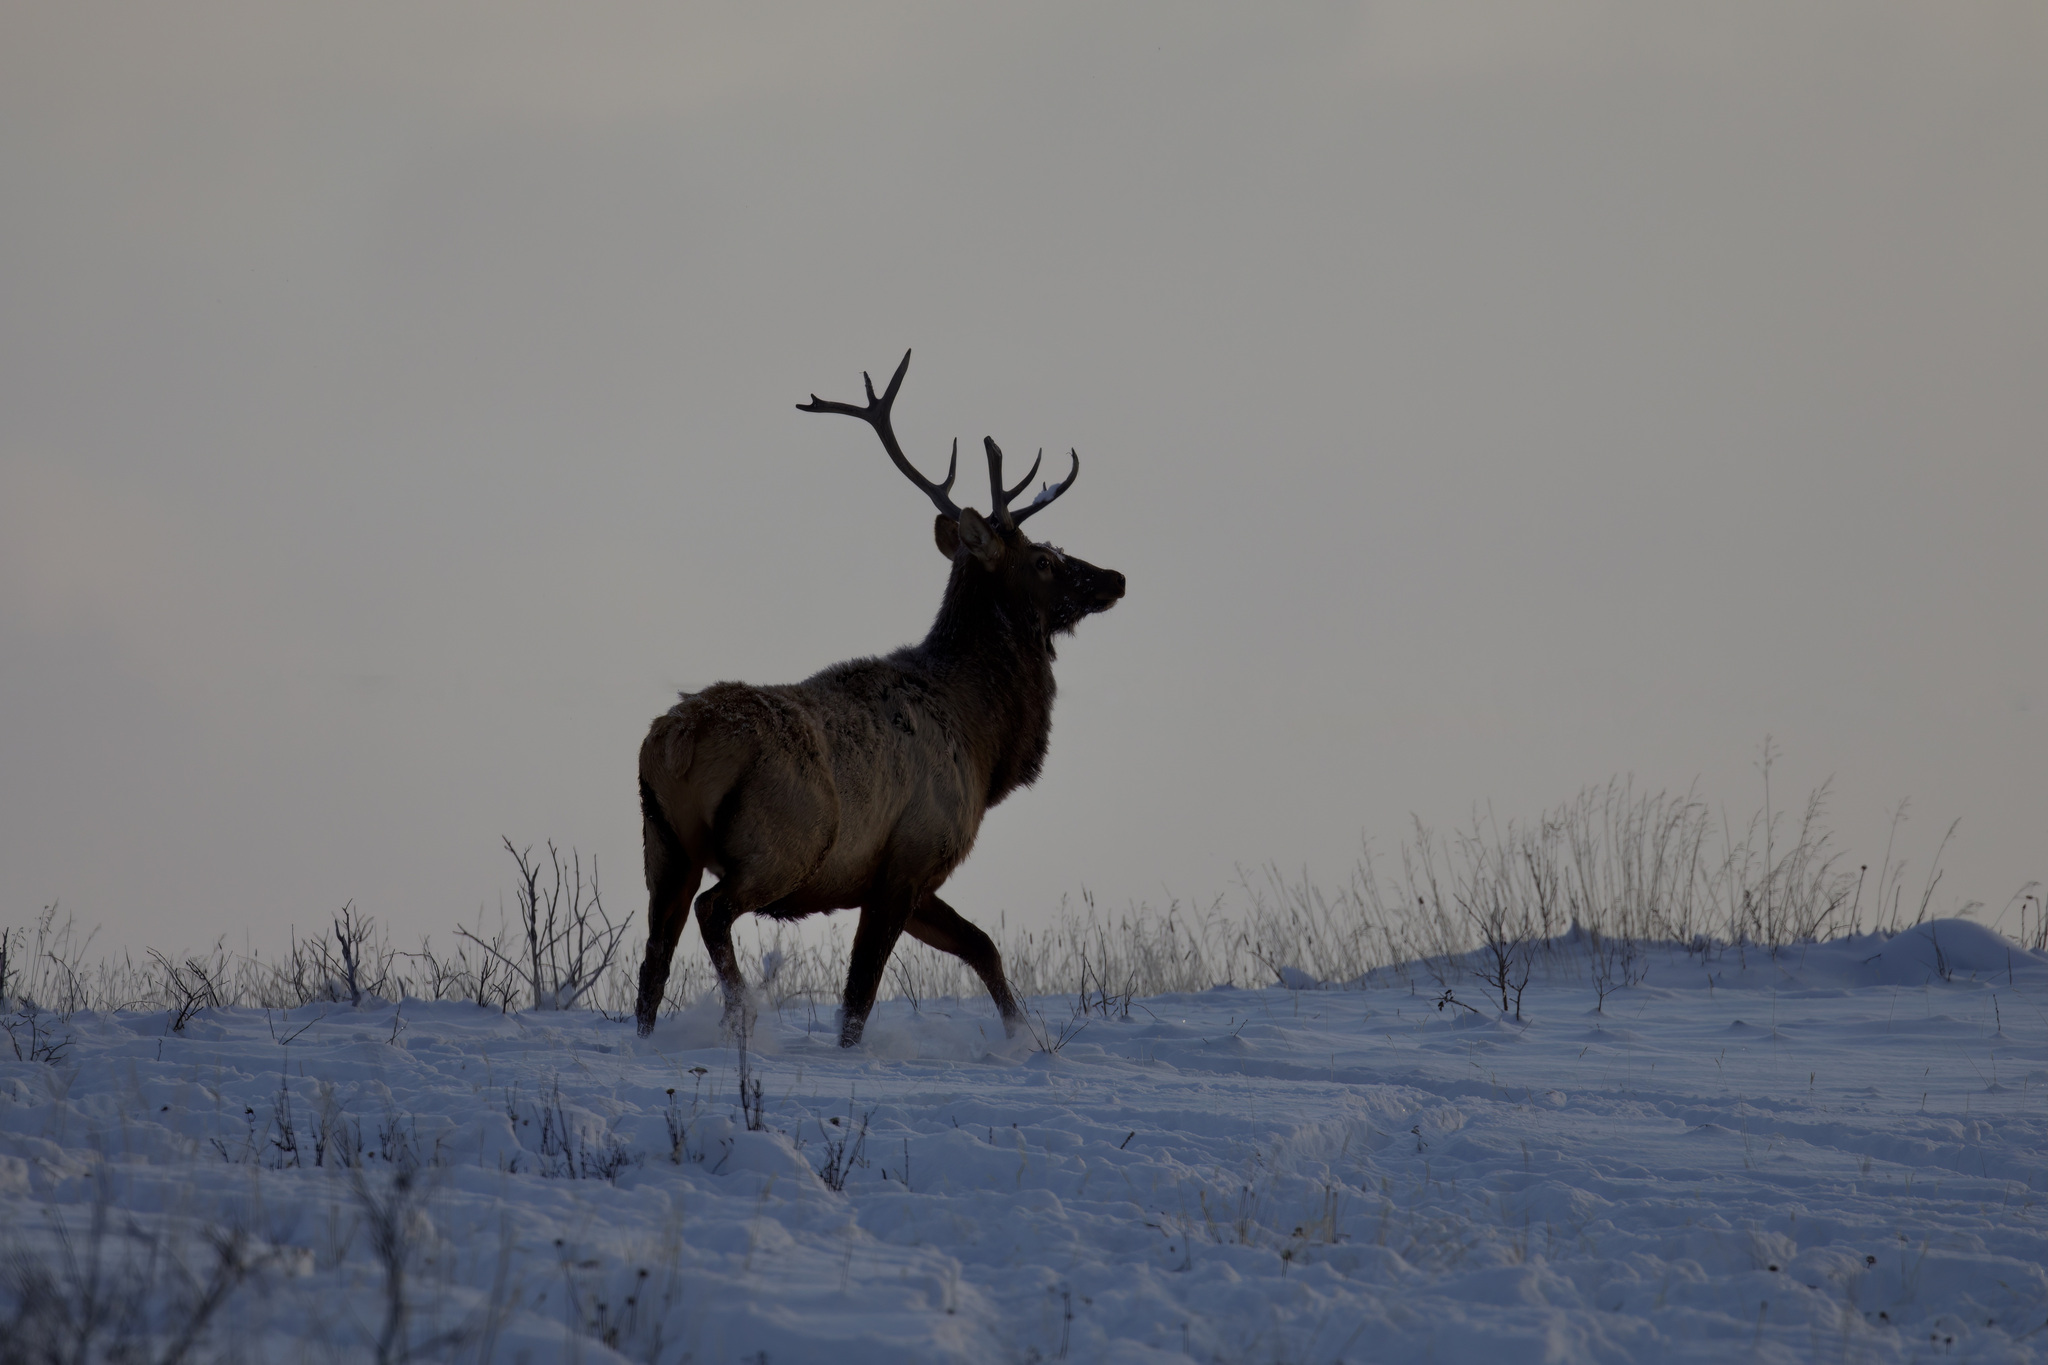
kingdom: Animalia
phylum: Chordata
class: Mammalia
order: Artiodactyla
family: Cervidae
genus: Cervus
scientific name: Cervus elaphus
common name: Red deer
